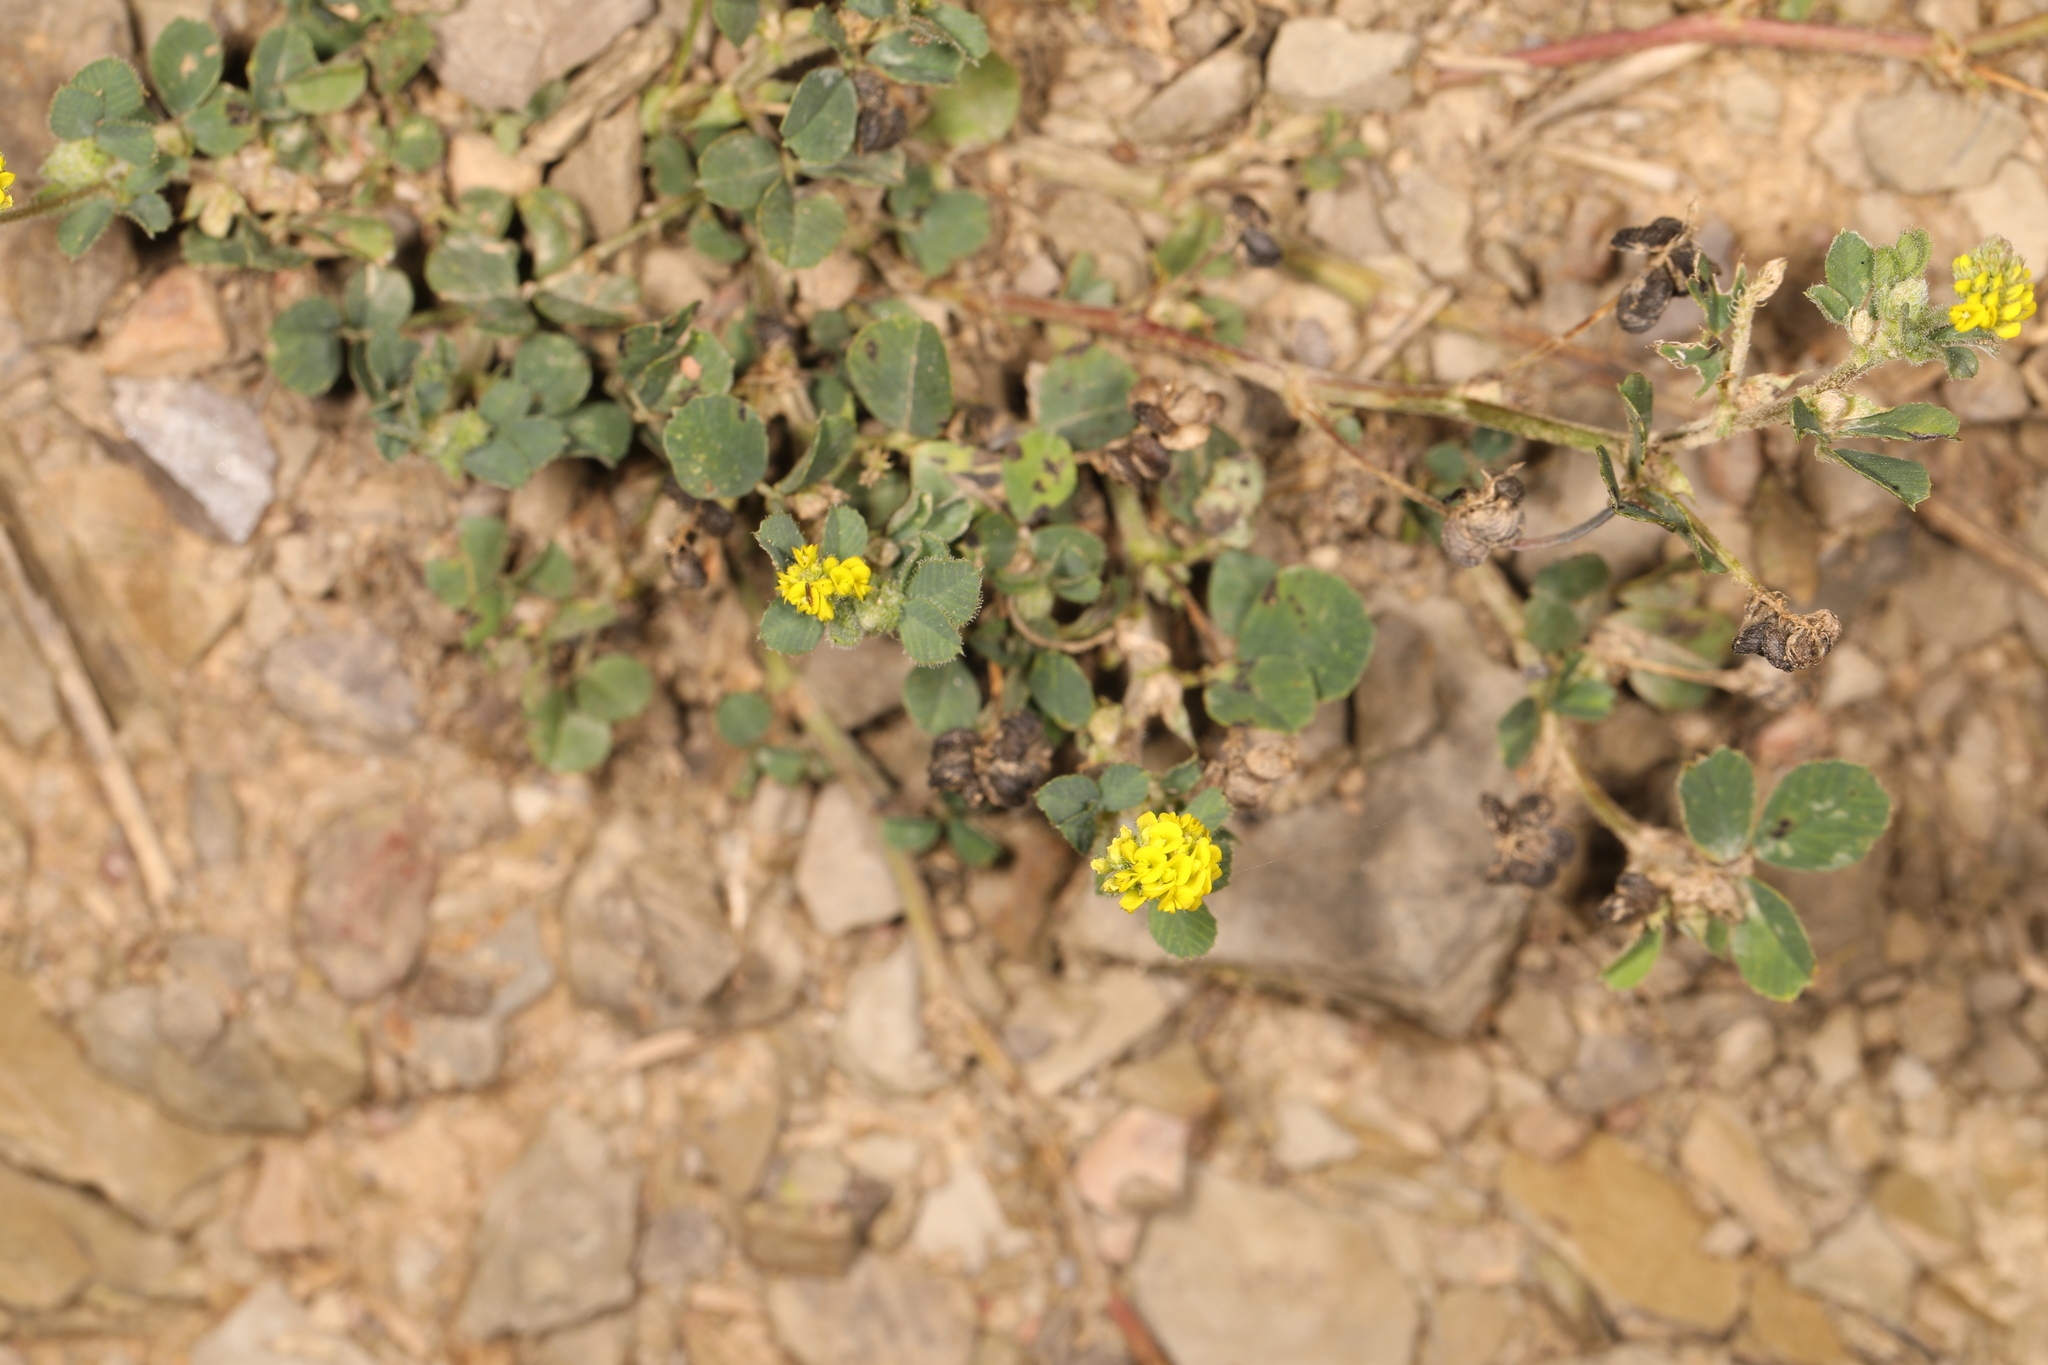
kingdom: Plantae
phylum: Tracheophyta
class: Magnoliopsida
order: Fabales
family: Fabaceae
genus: Medicago
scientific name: Medicago lupulina
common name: Black medick
